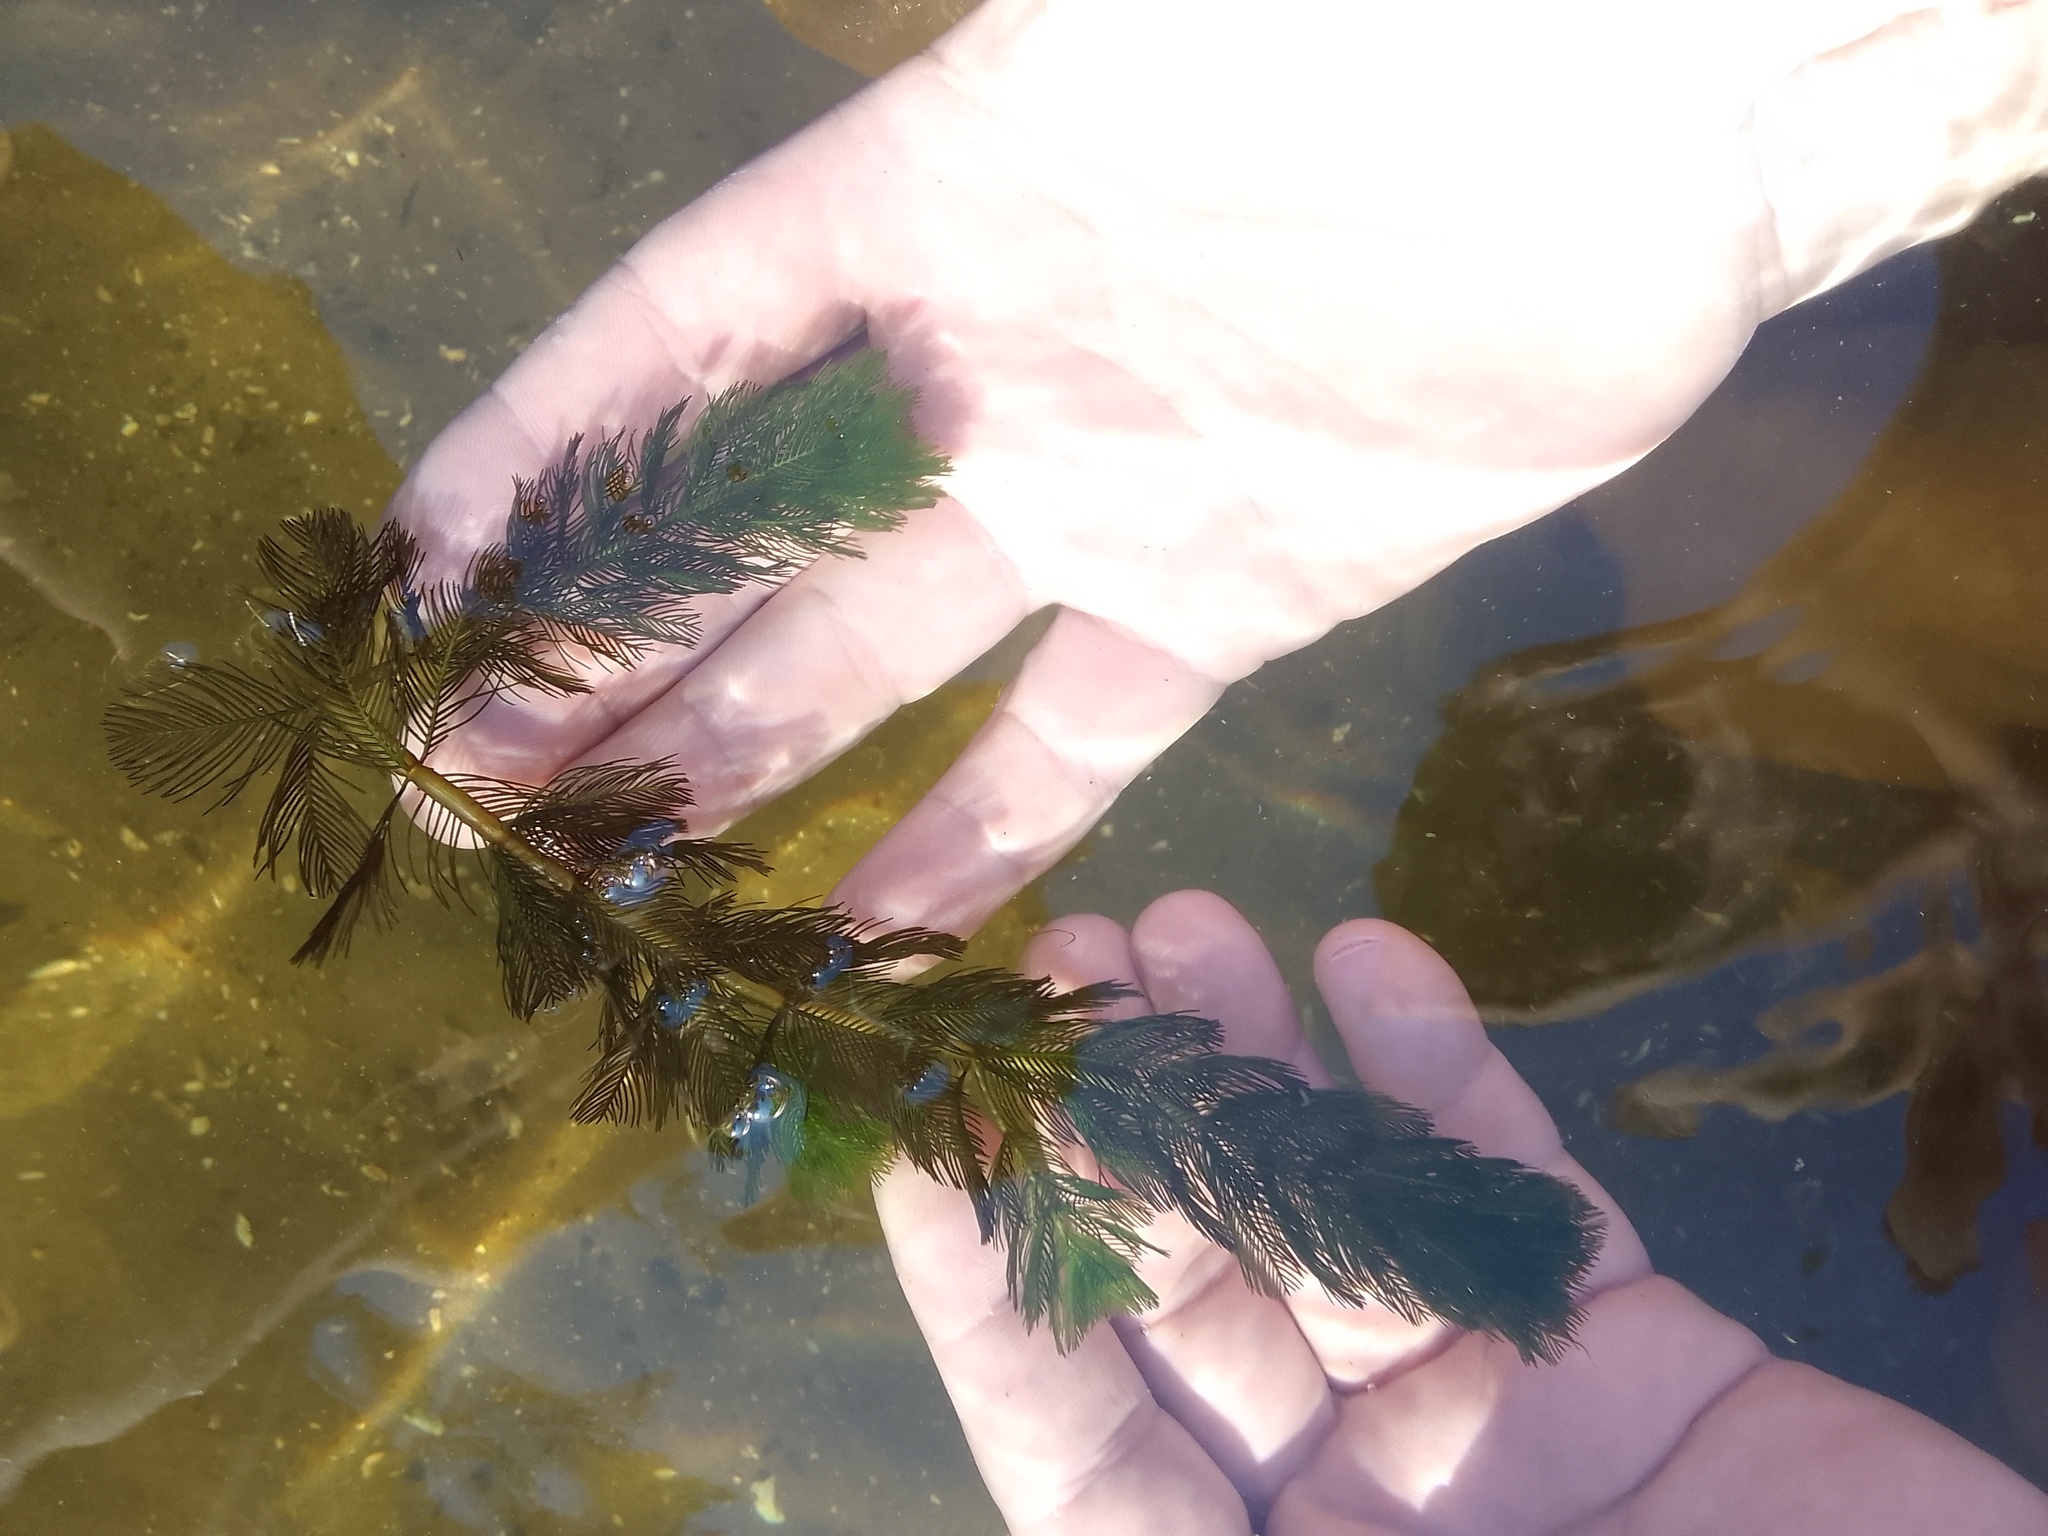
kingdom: Plantae
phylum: Tracheophyta
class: Magnoliopsida
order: Saxifragales
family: Haloragaceae
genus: Myriophyllum
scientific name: Myriophyllum spicatum
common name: Spiked water-milfoil
